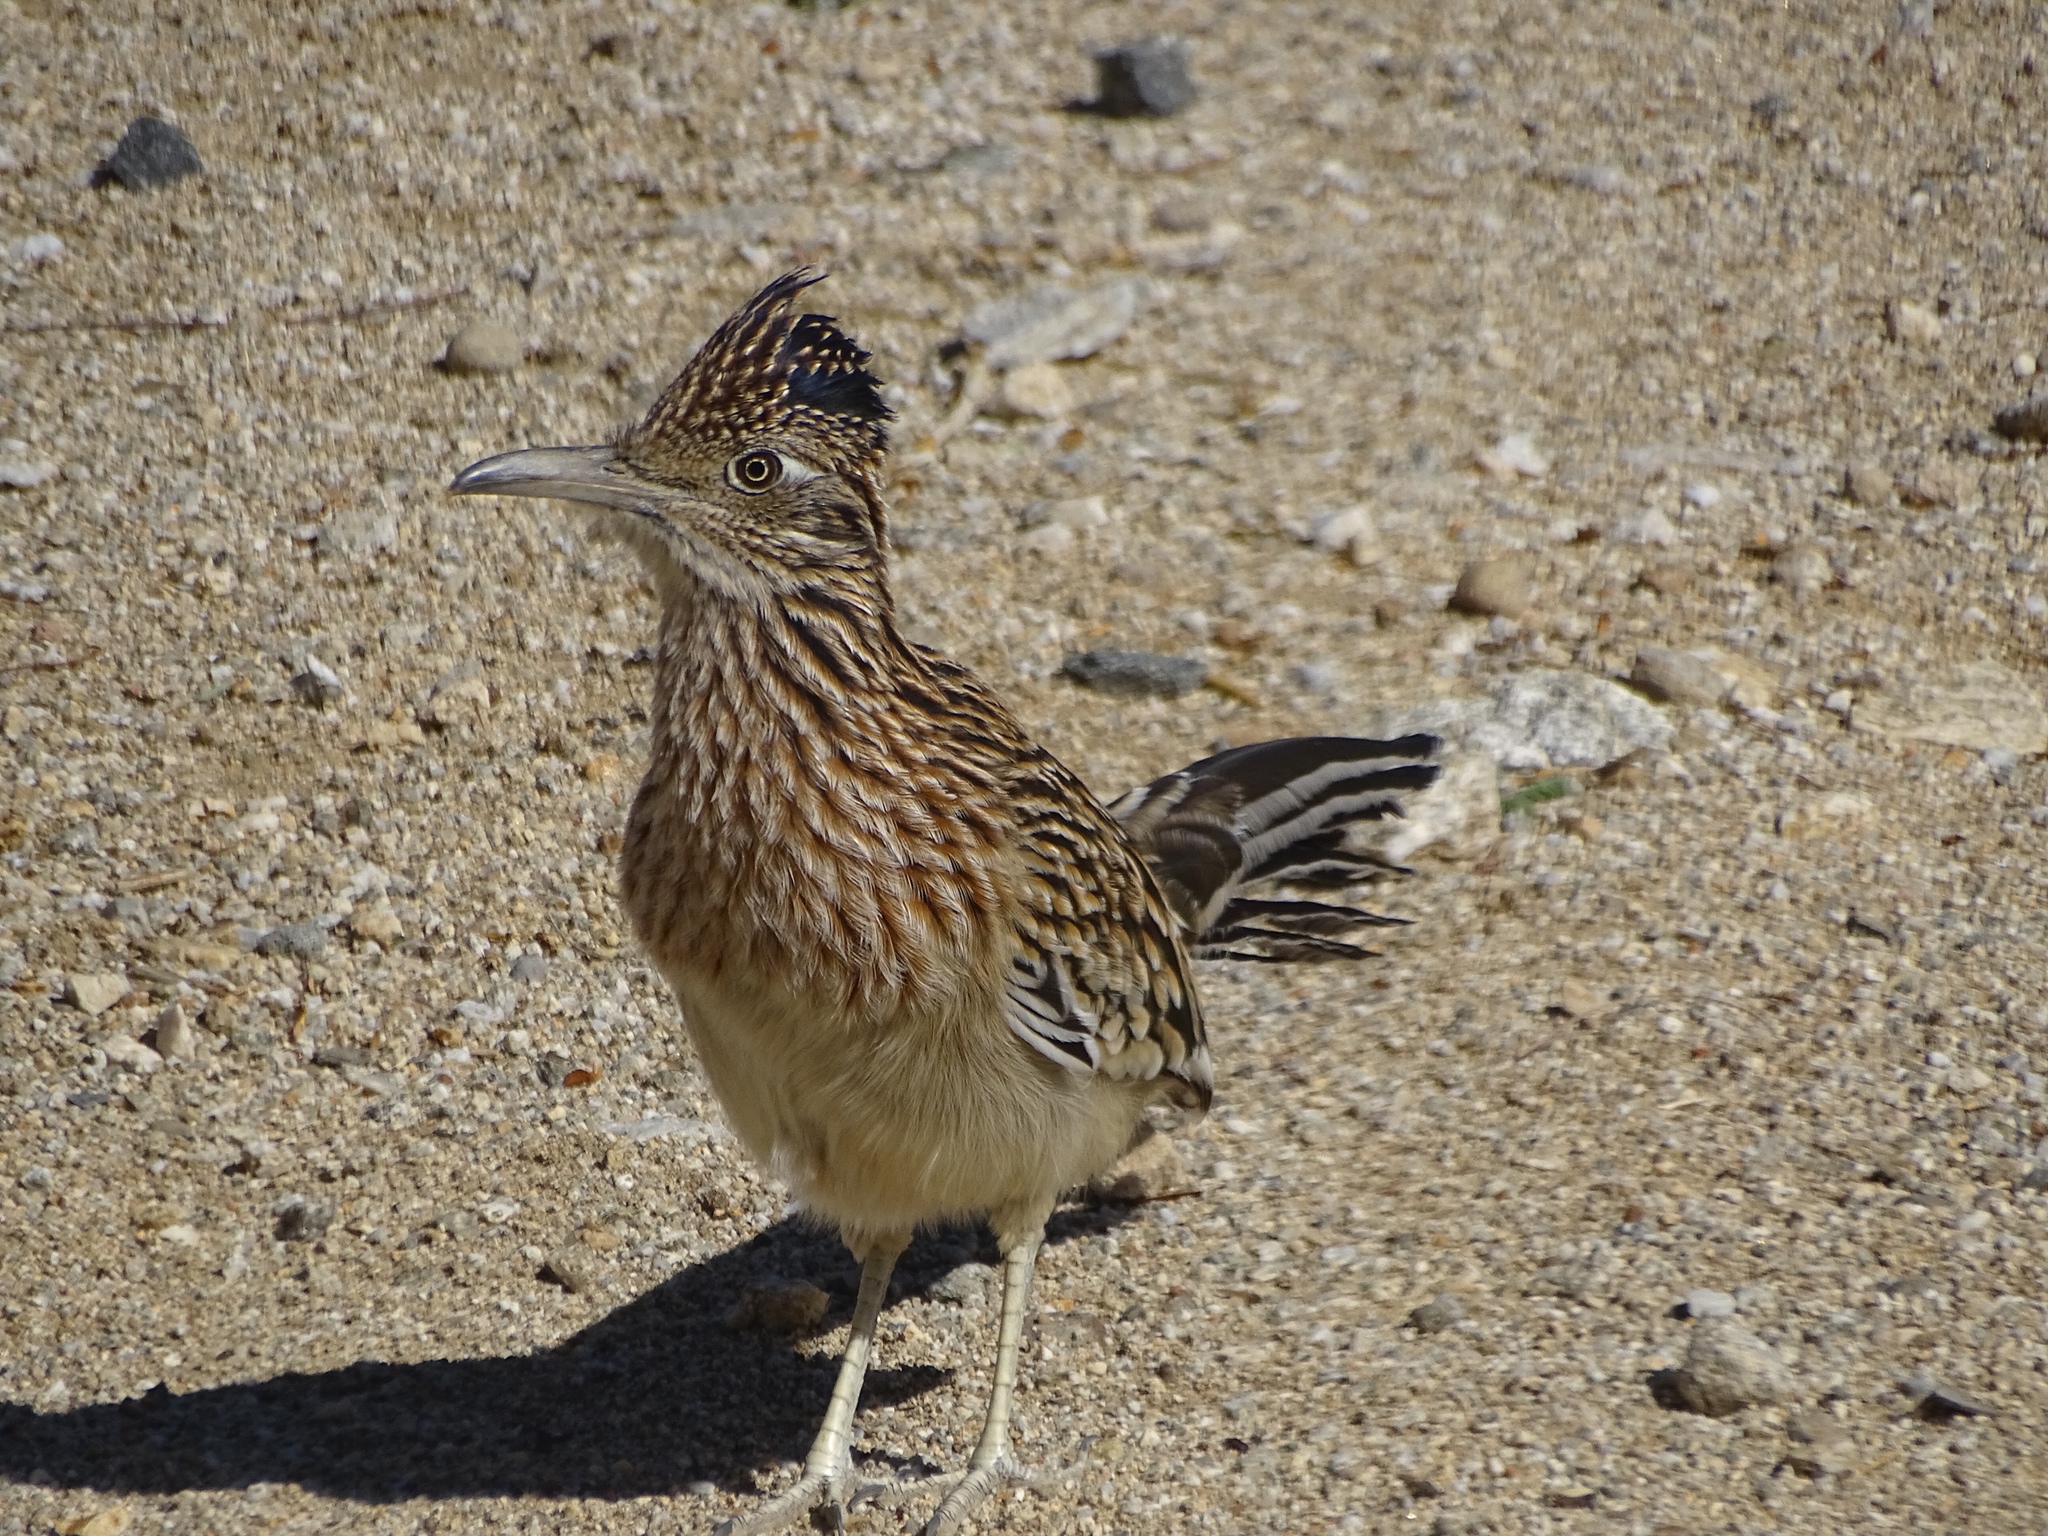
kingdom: Animalia
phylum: Chordata
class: Aves
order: Cuculiformes
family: Cuculidae
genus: Geococcyx
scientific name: Geococcyx californianus
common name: Greater roadrunner
